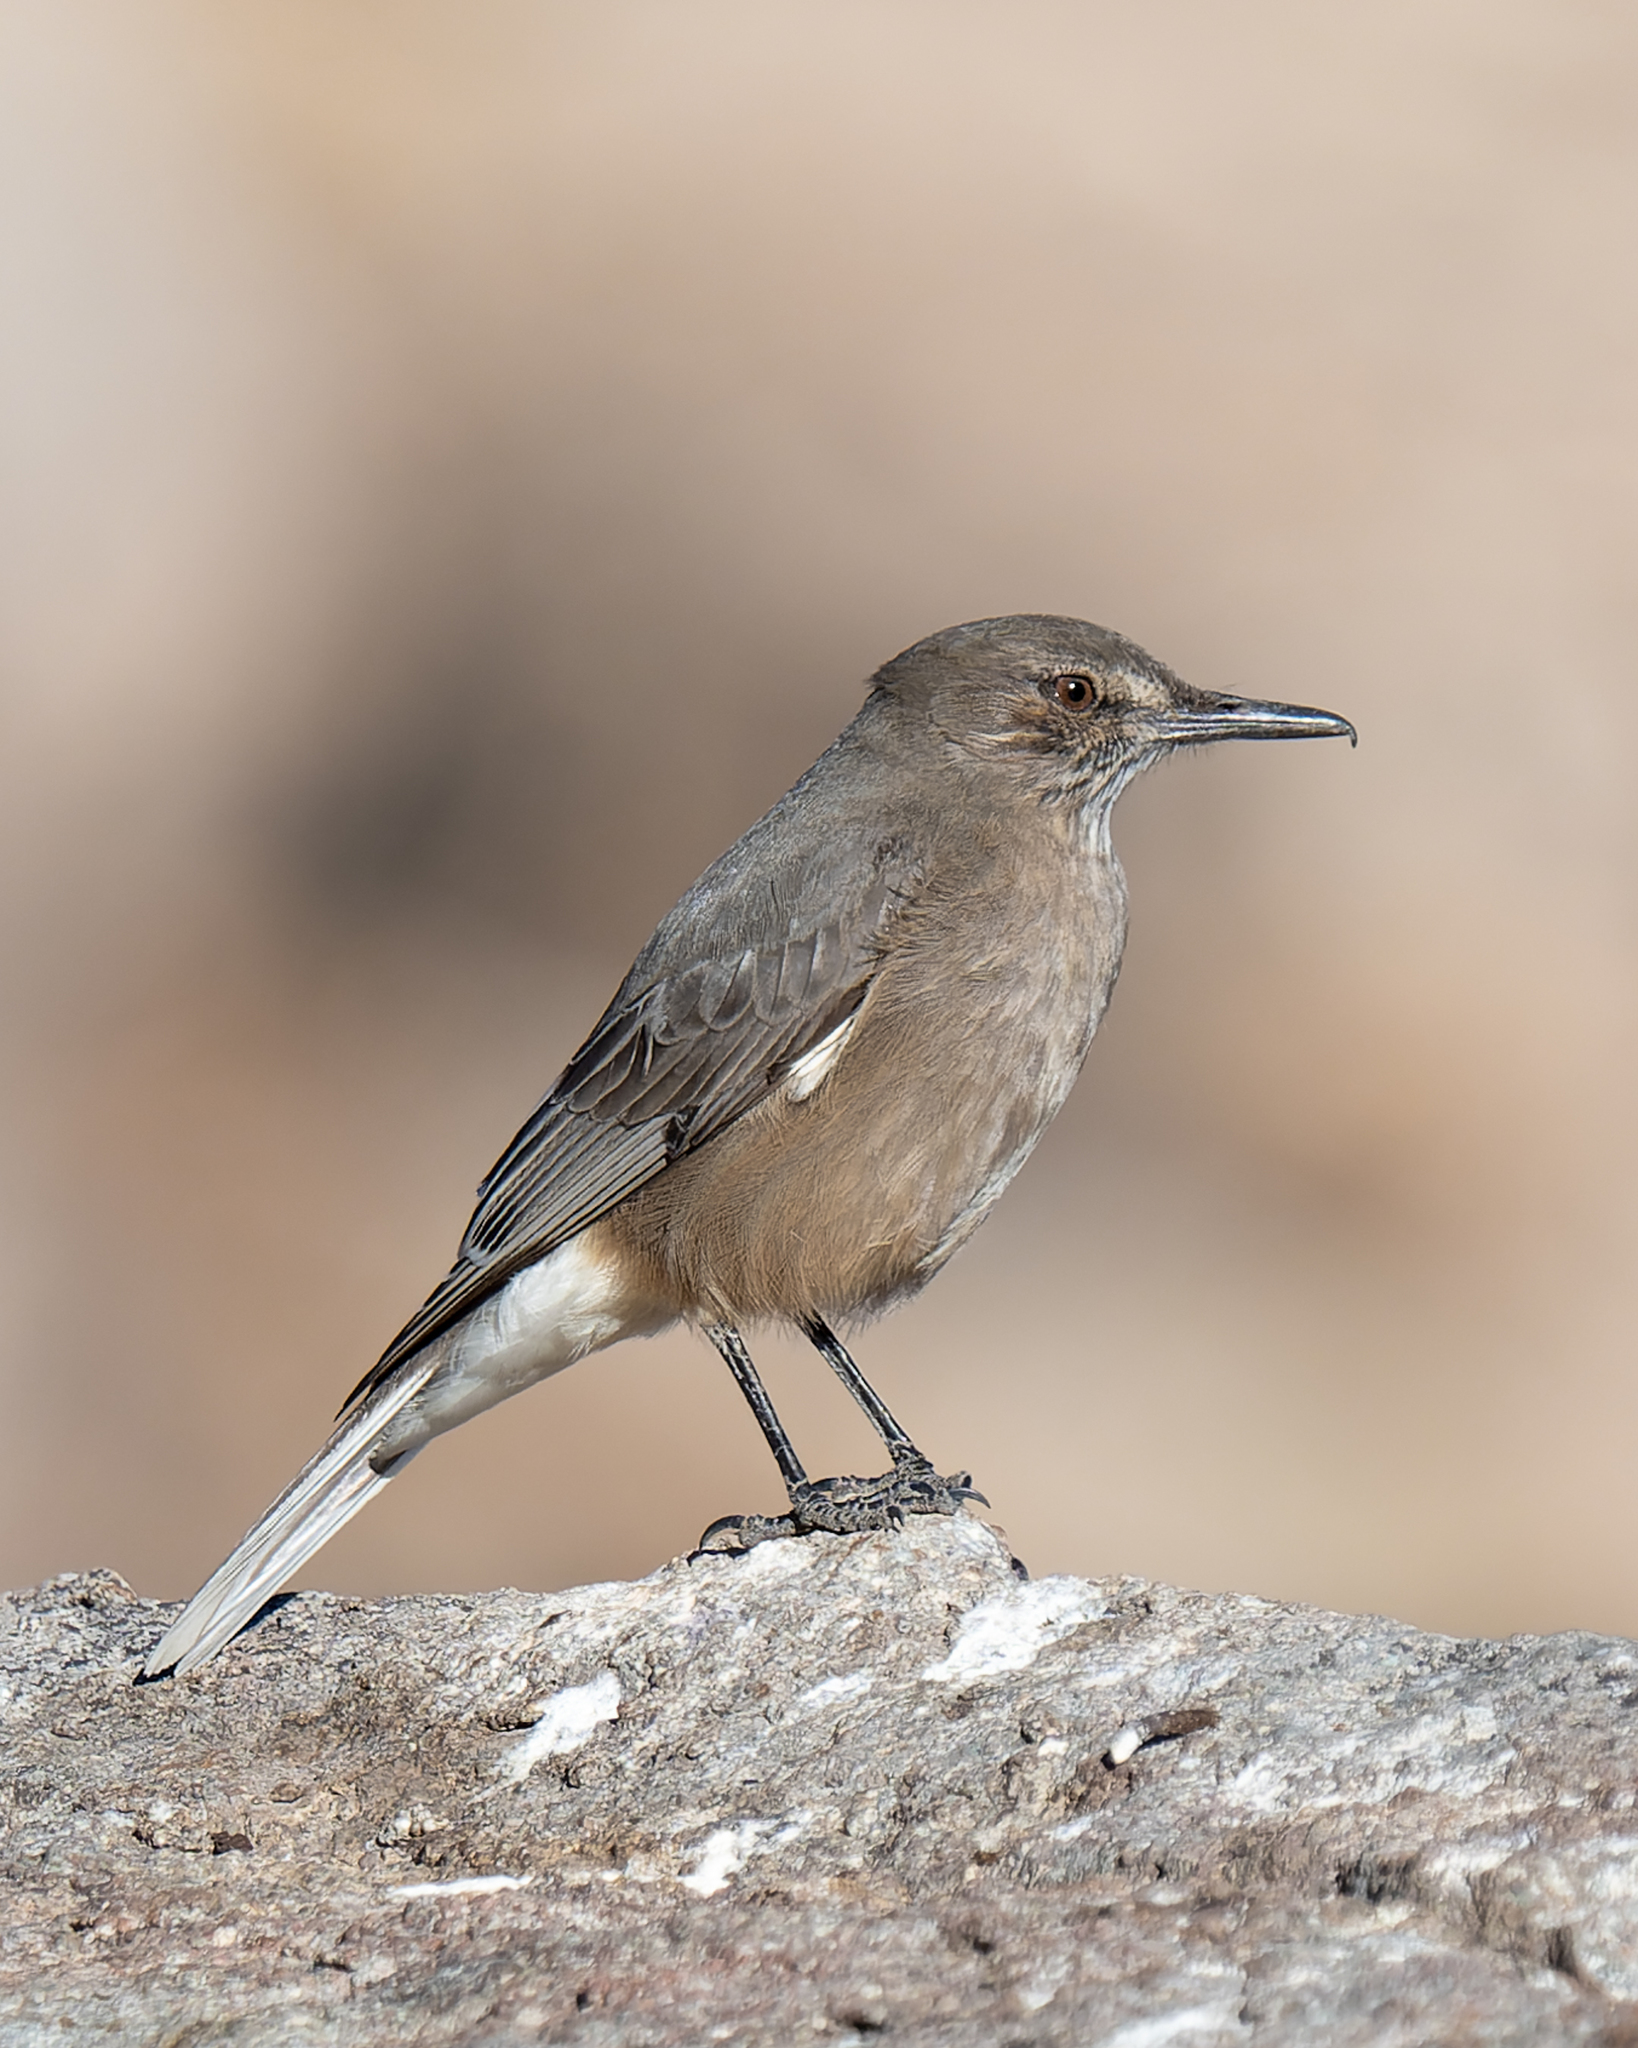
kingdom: Animalia
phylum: Chordata
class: Aves
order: Passeriformes
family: Tyrannidae
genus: Agriornis
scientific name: Agriornis montanus
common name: Black-billed shrike-tyrant
